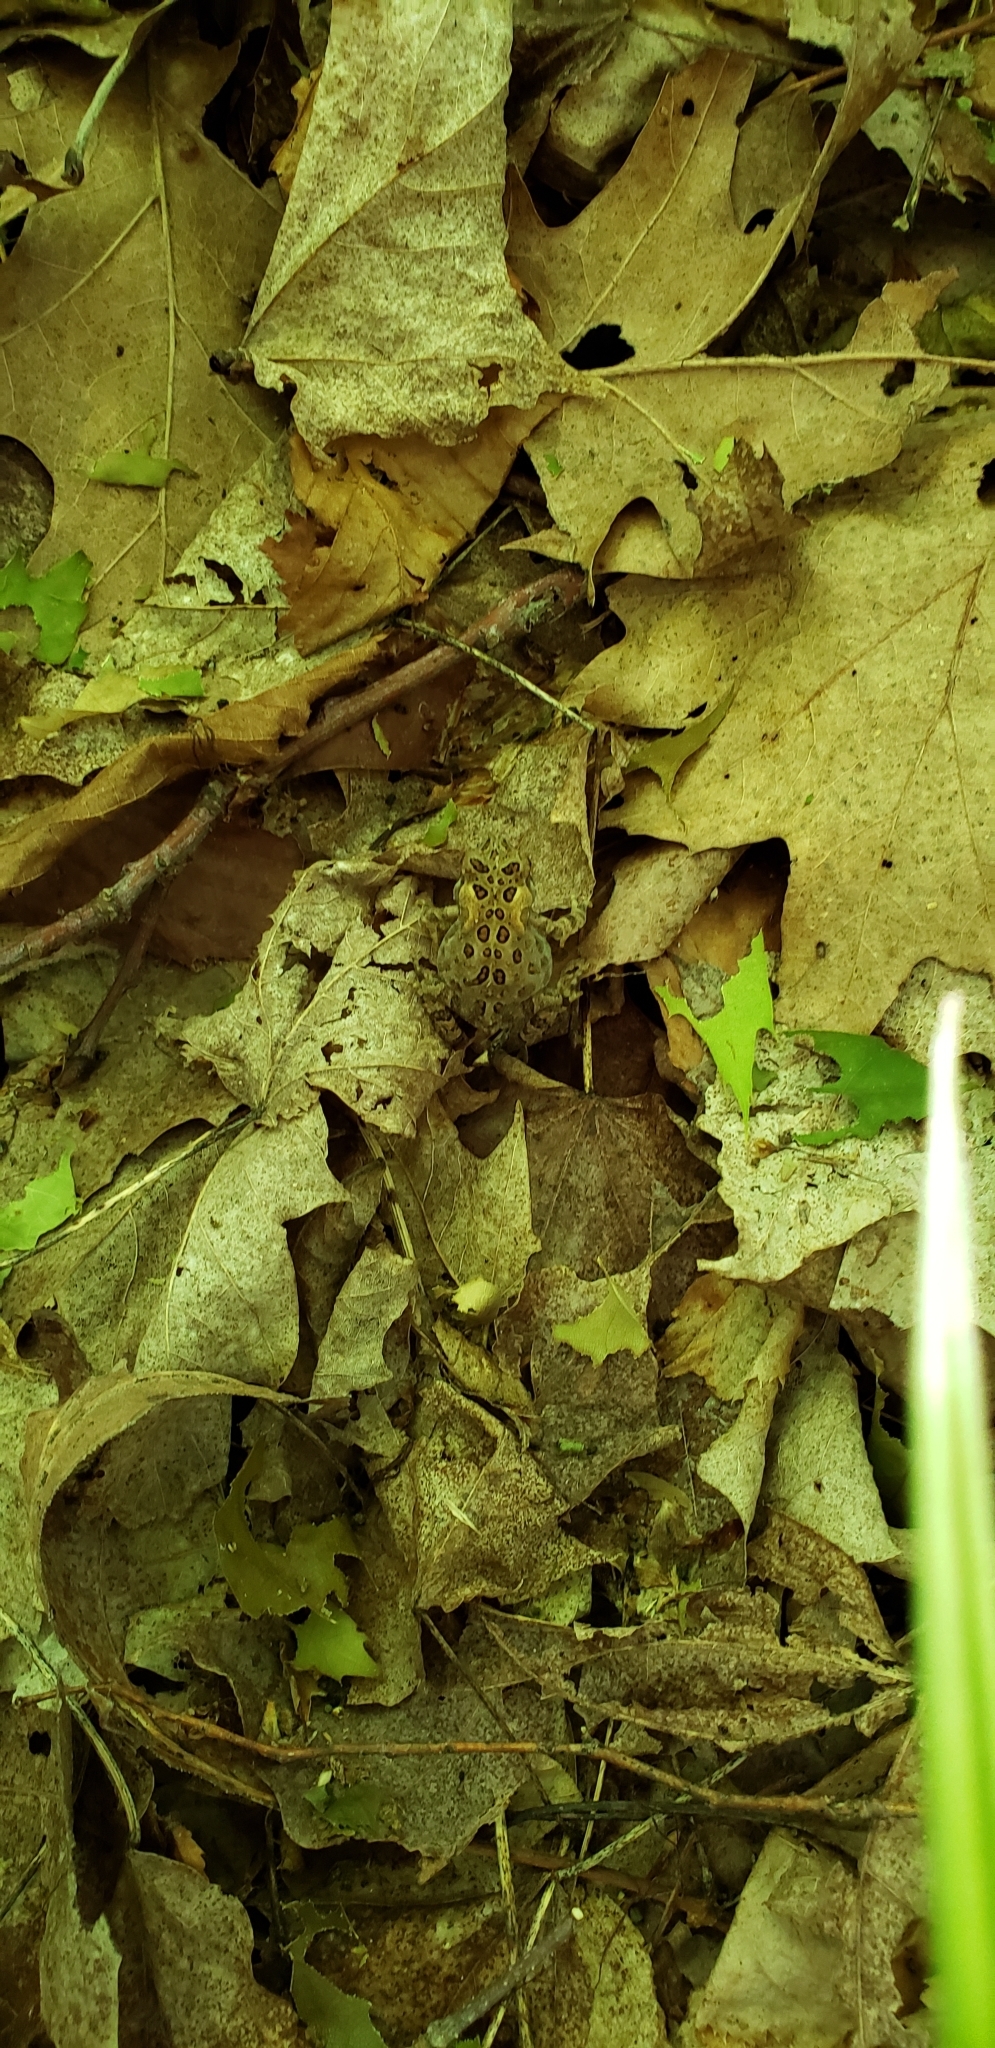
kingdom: Animalia
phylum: Chordata
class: Amphibia
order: Anura
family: Bufonidae
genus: Anaxyrus
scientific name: Anaxyrus americanus
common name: American toad
